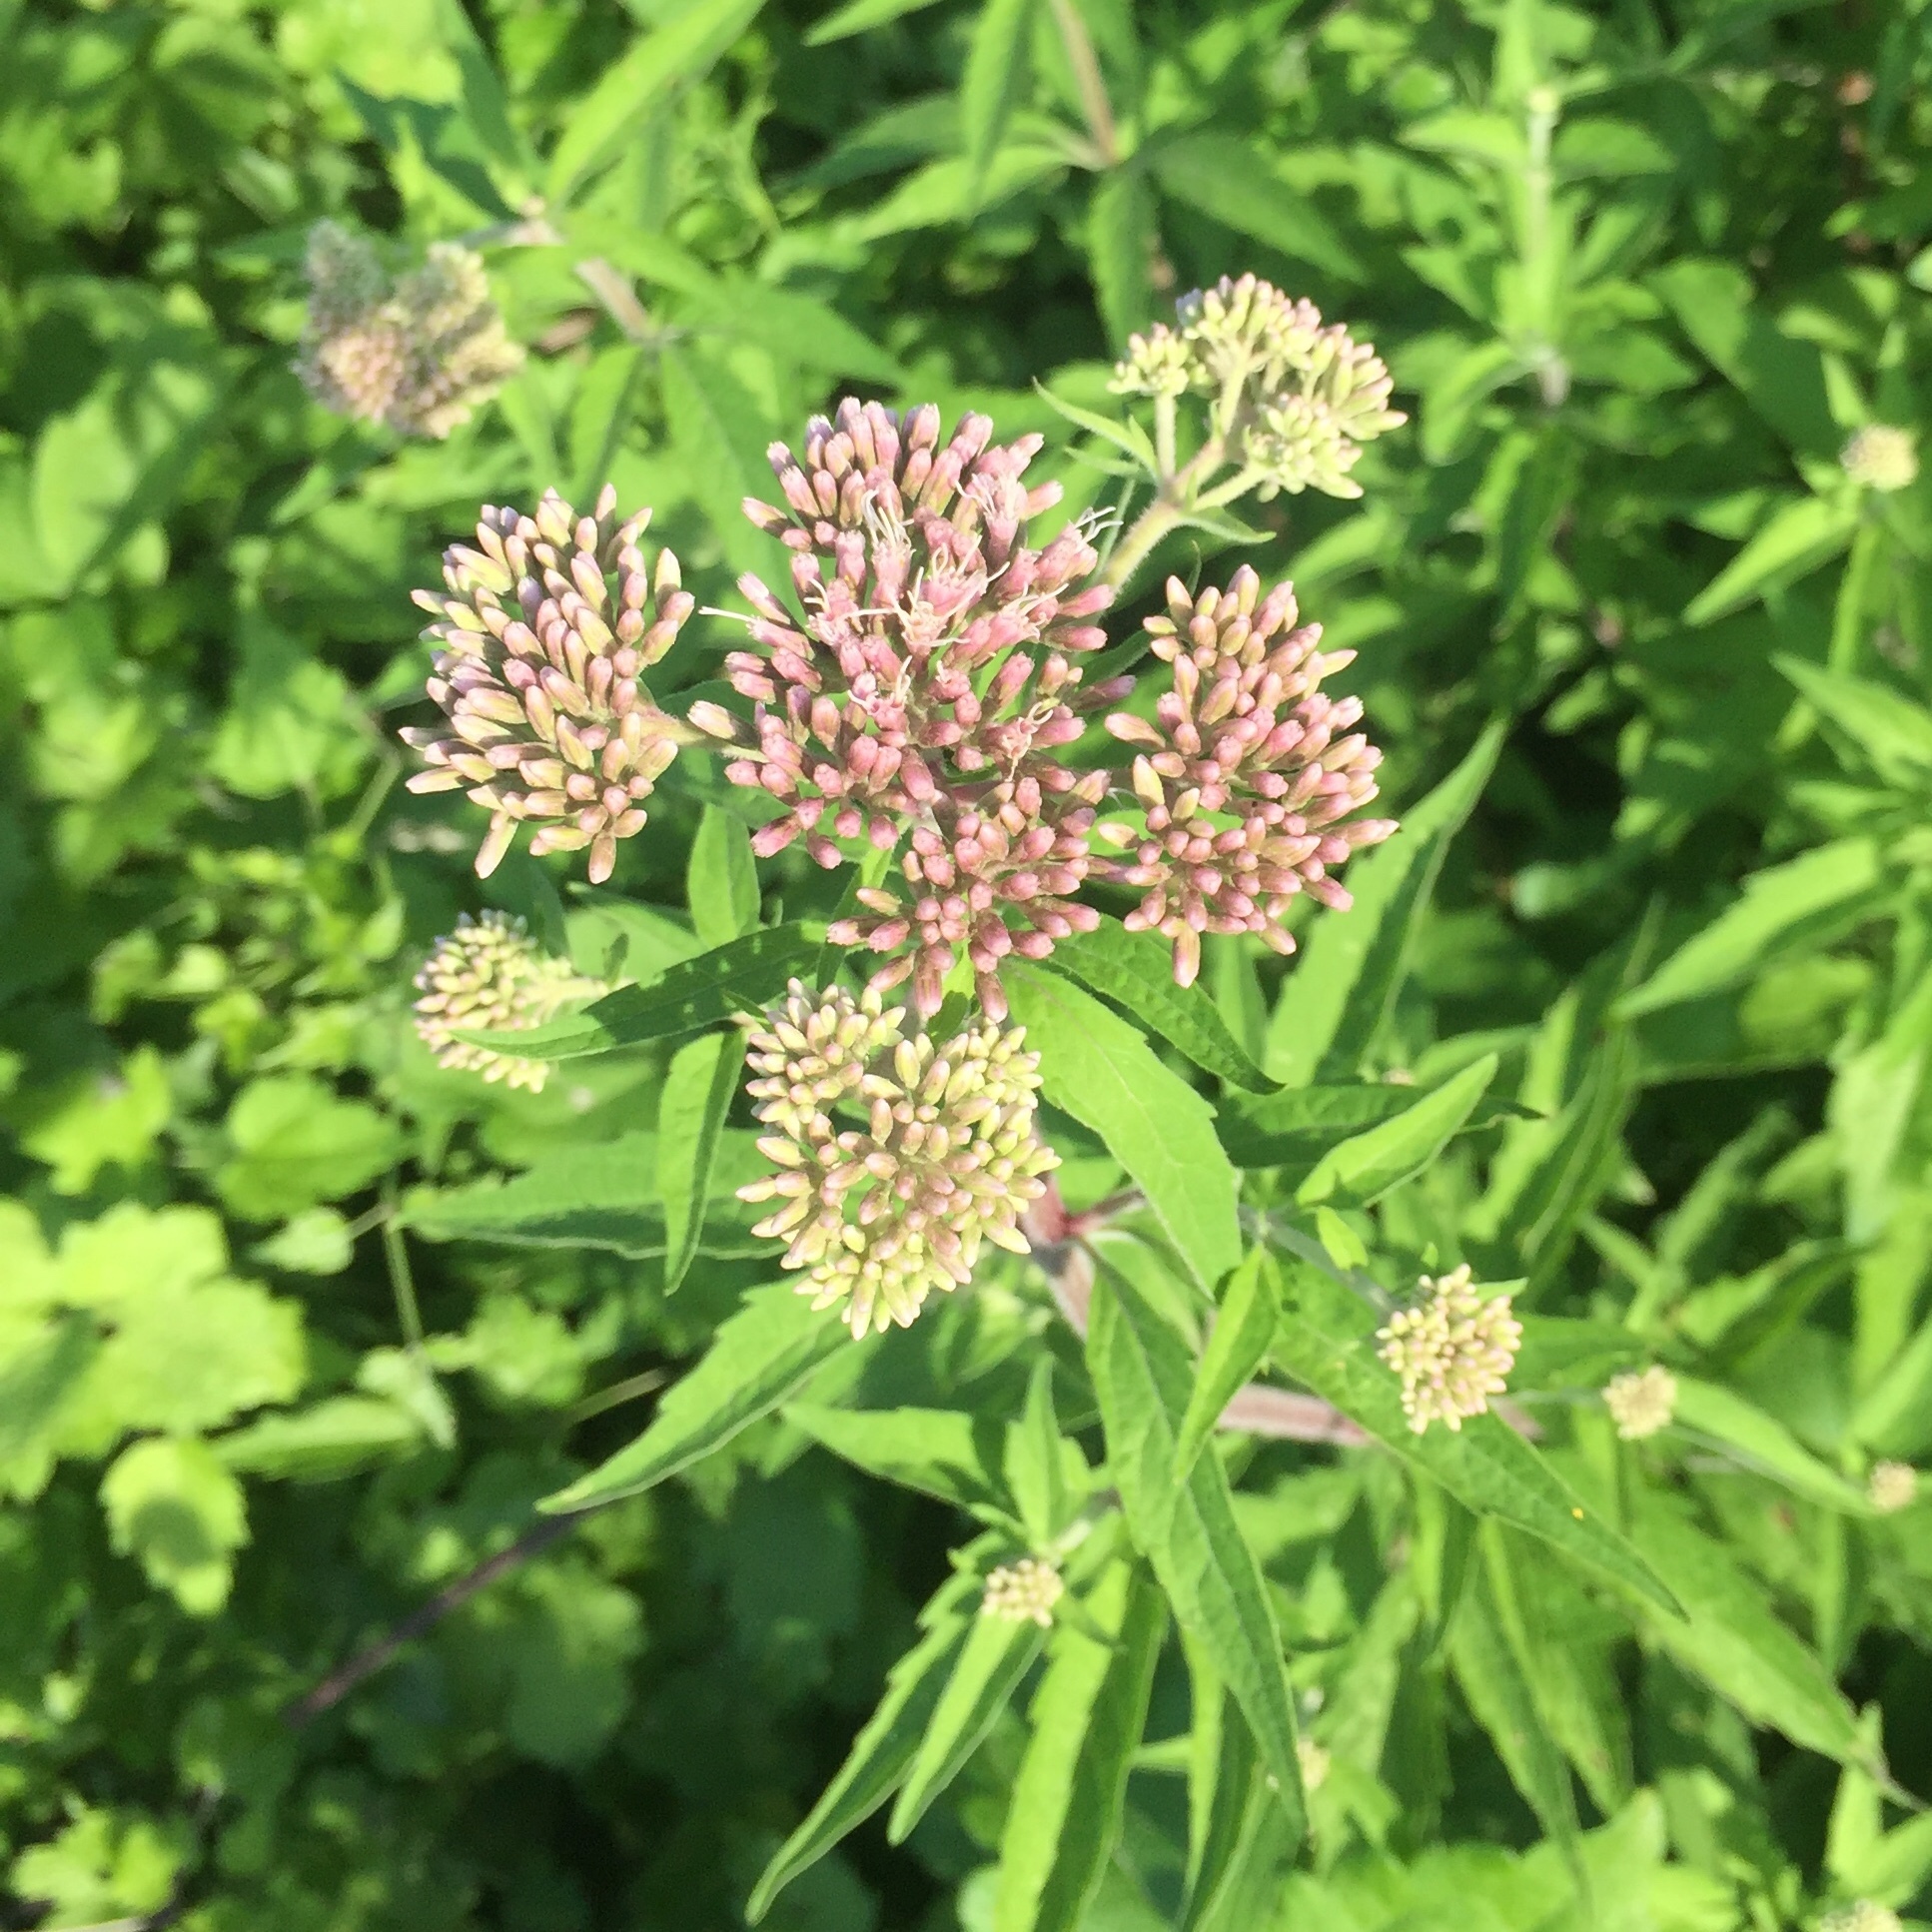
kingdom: Plantae
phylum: Tracheophyta
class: Magnoliopsida
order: Asterales
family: Asteraceae
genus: Eupatorium
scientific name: Eupatorium cannabinum
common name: Hemp-agrimony
